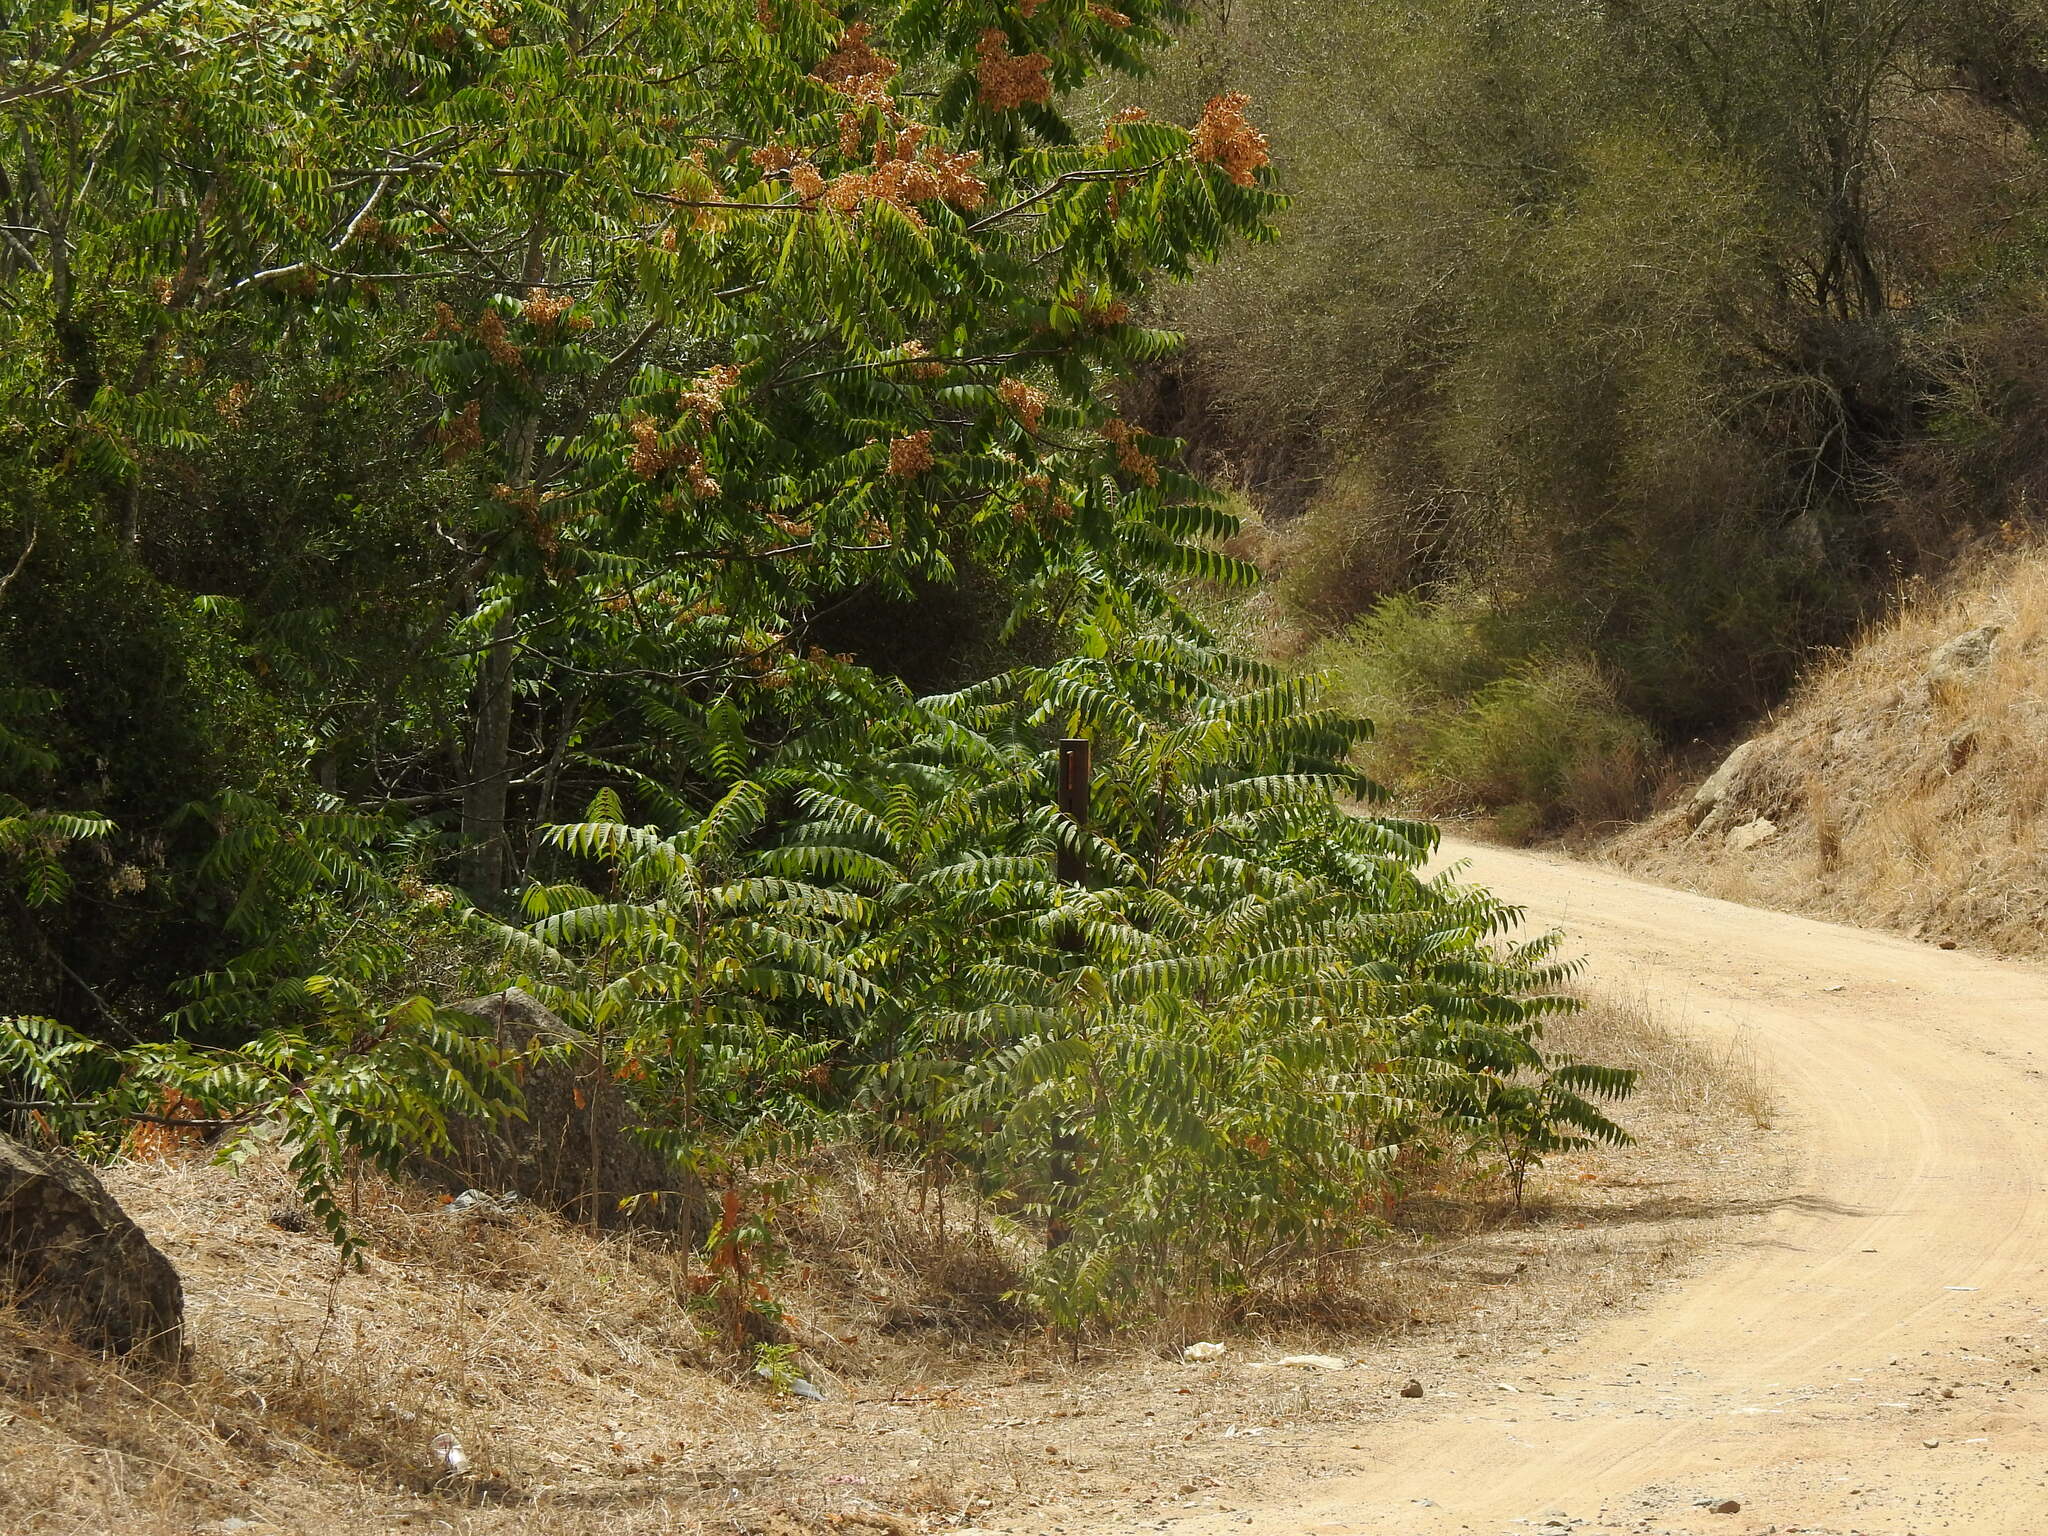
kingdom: Plantae
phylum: Tracheophyta
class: Magnoliopsida
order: Sapindales
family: Simaroubaceae
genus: Ailanthus
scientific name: Ailanthus altissima
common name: Tree-of-heaven
